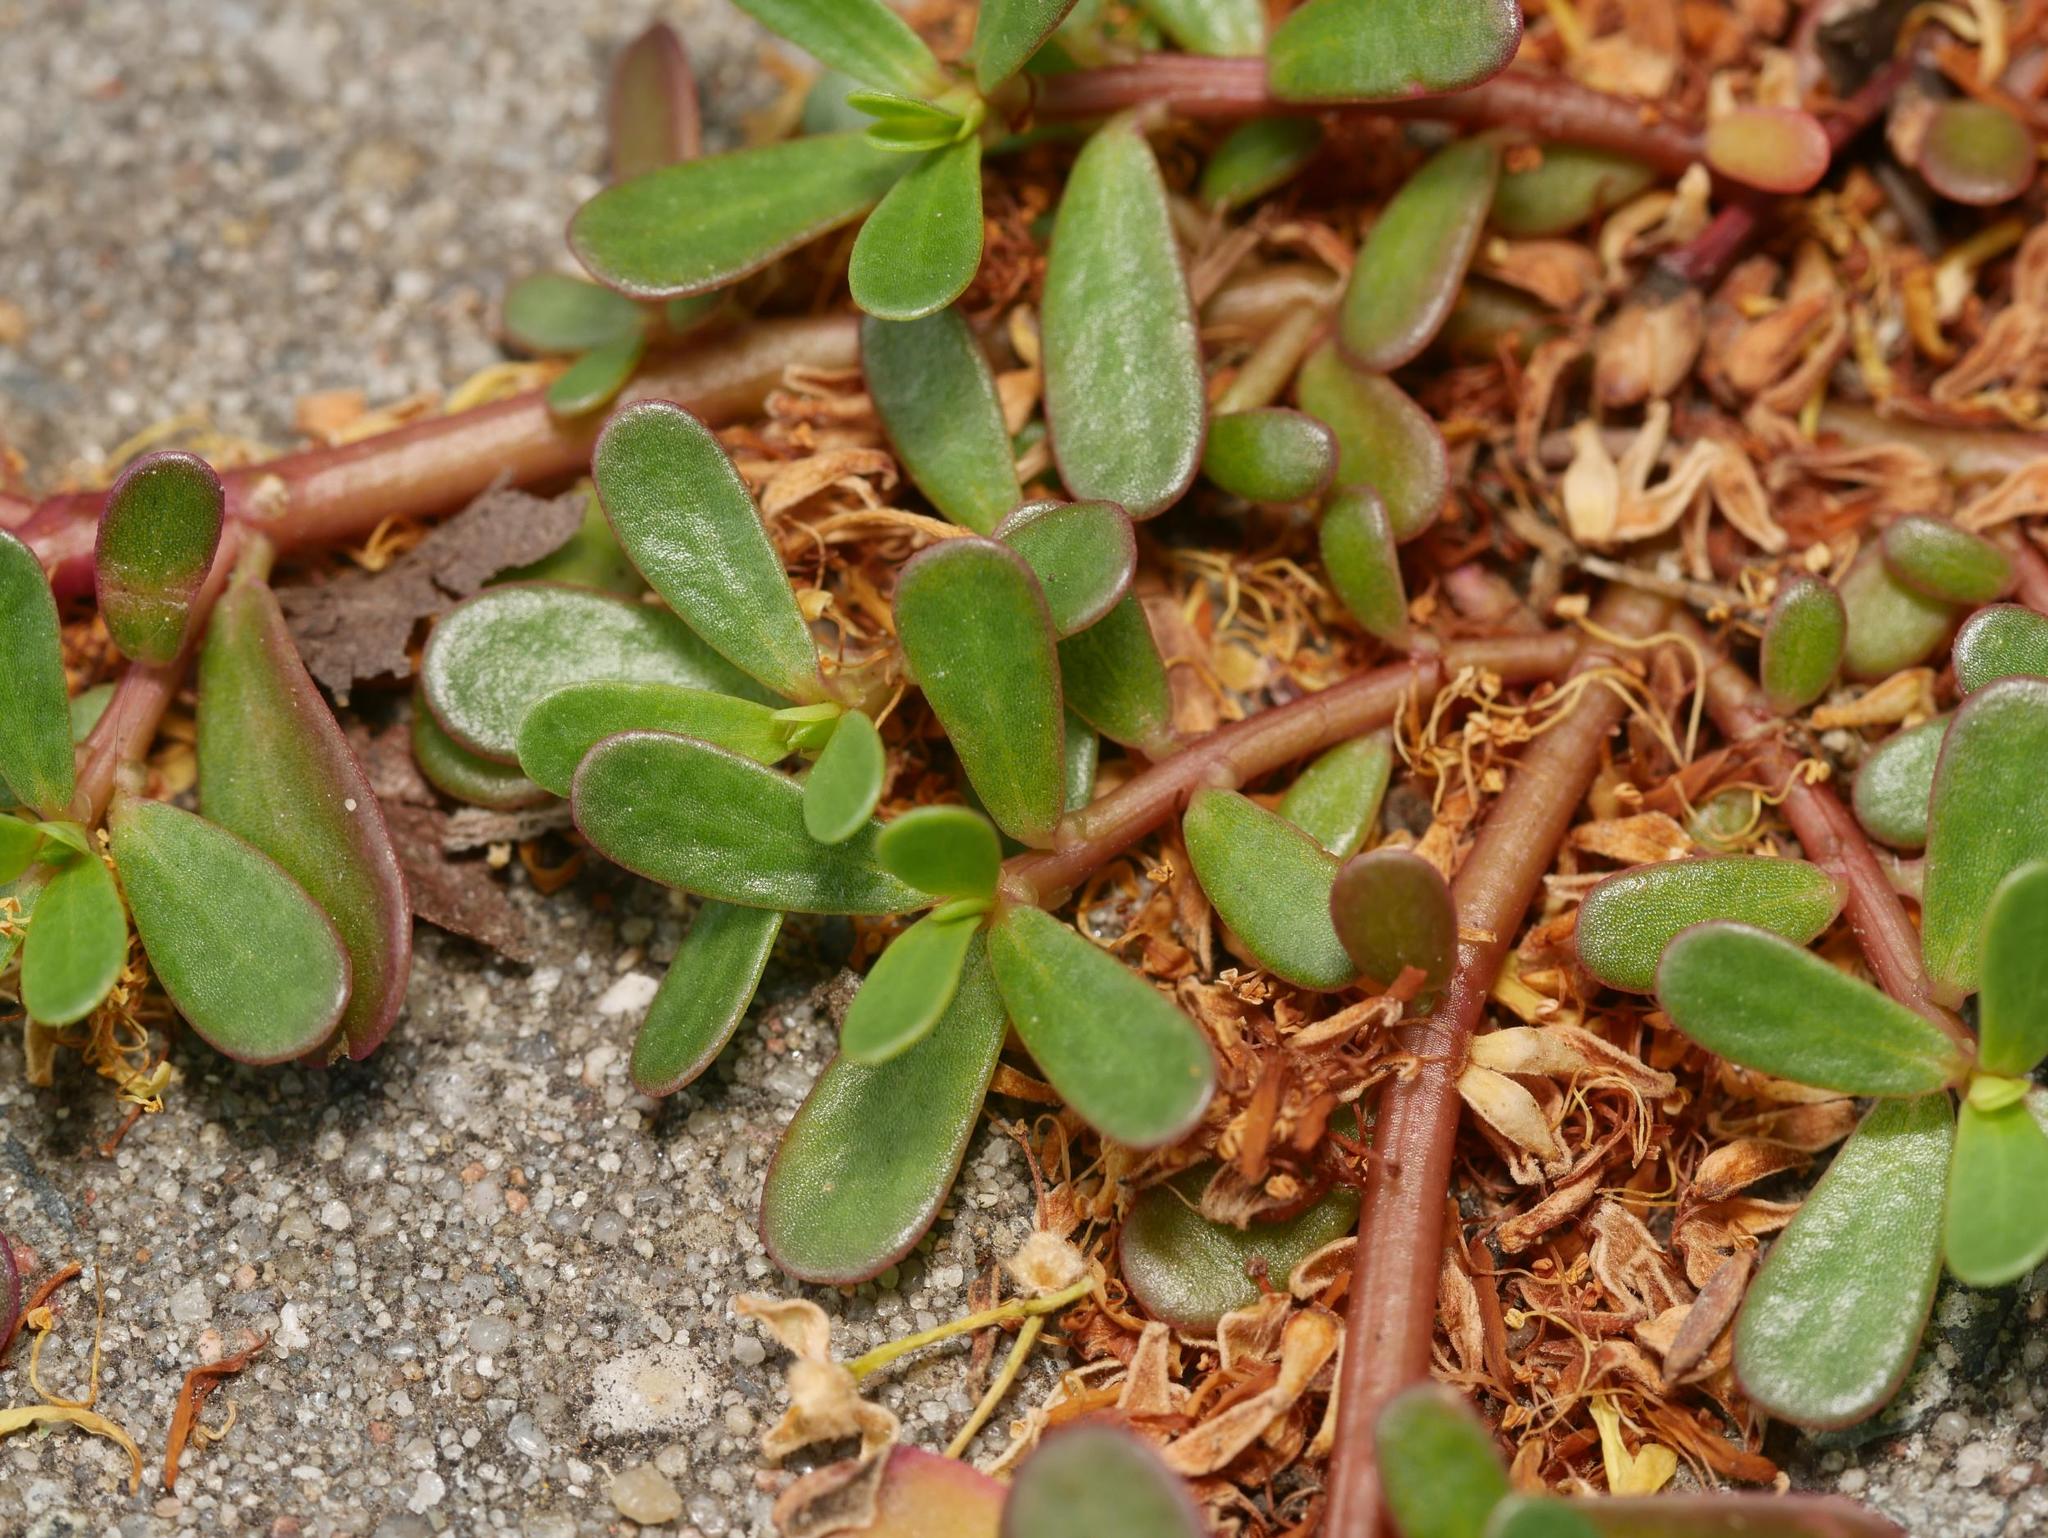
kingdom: Plantae
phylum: Tracheophyta
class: Magnoliopsida
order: Caryophyllales
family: Portulacaceae
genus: Portulaca
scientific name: Portulaca oleracea
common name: Common purslane
